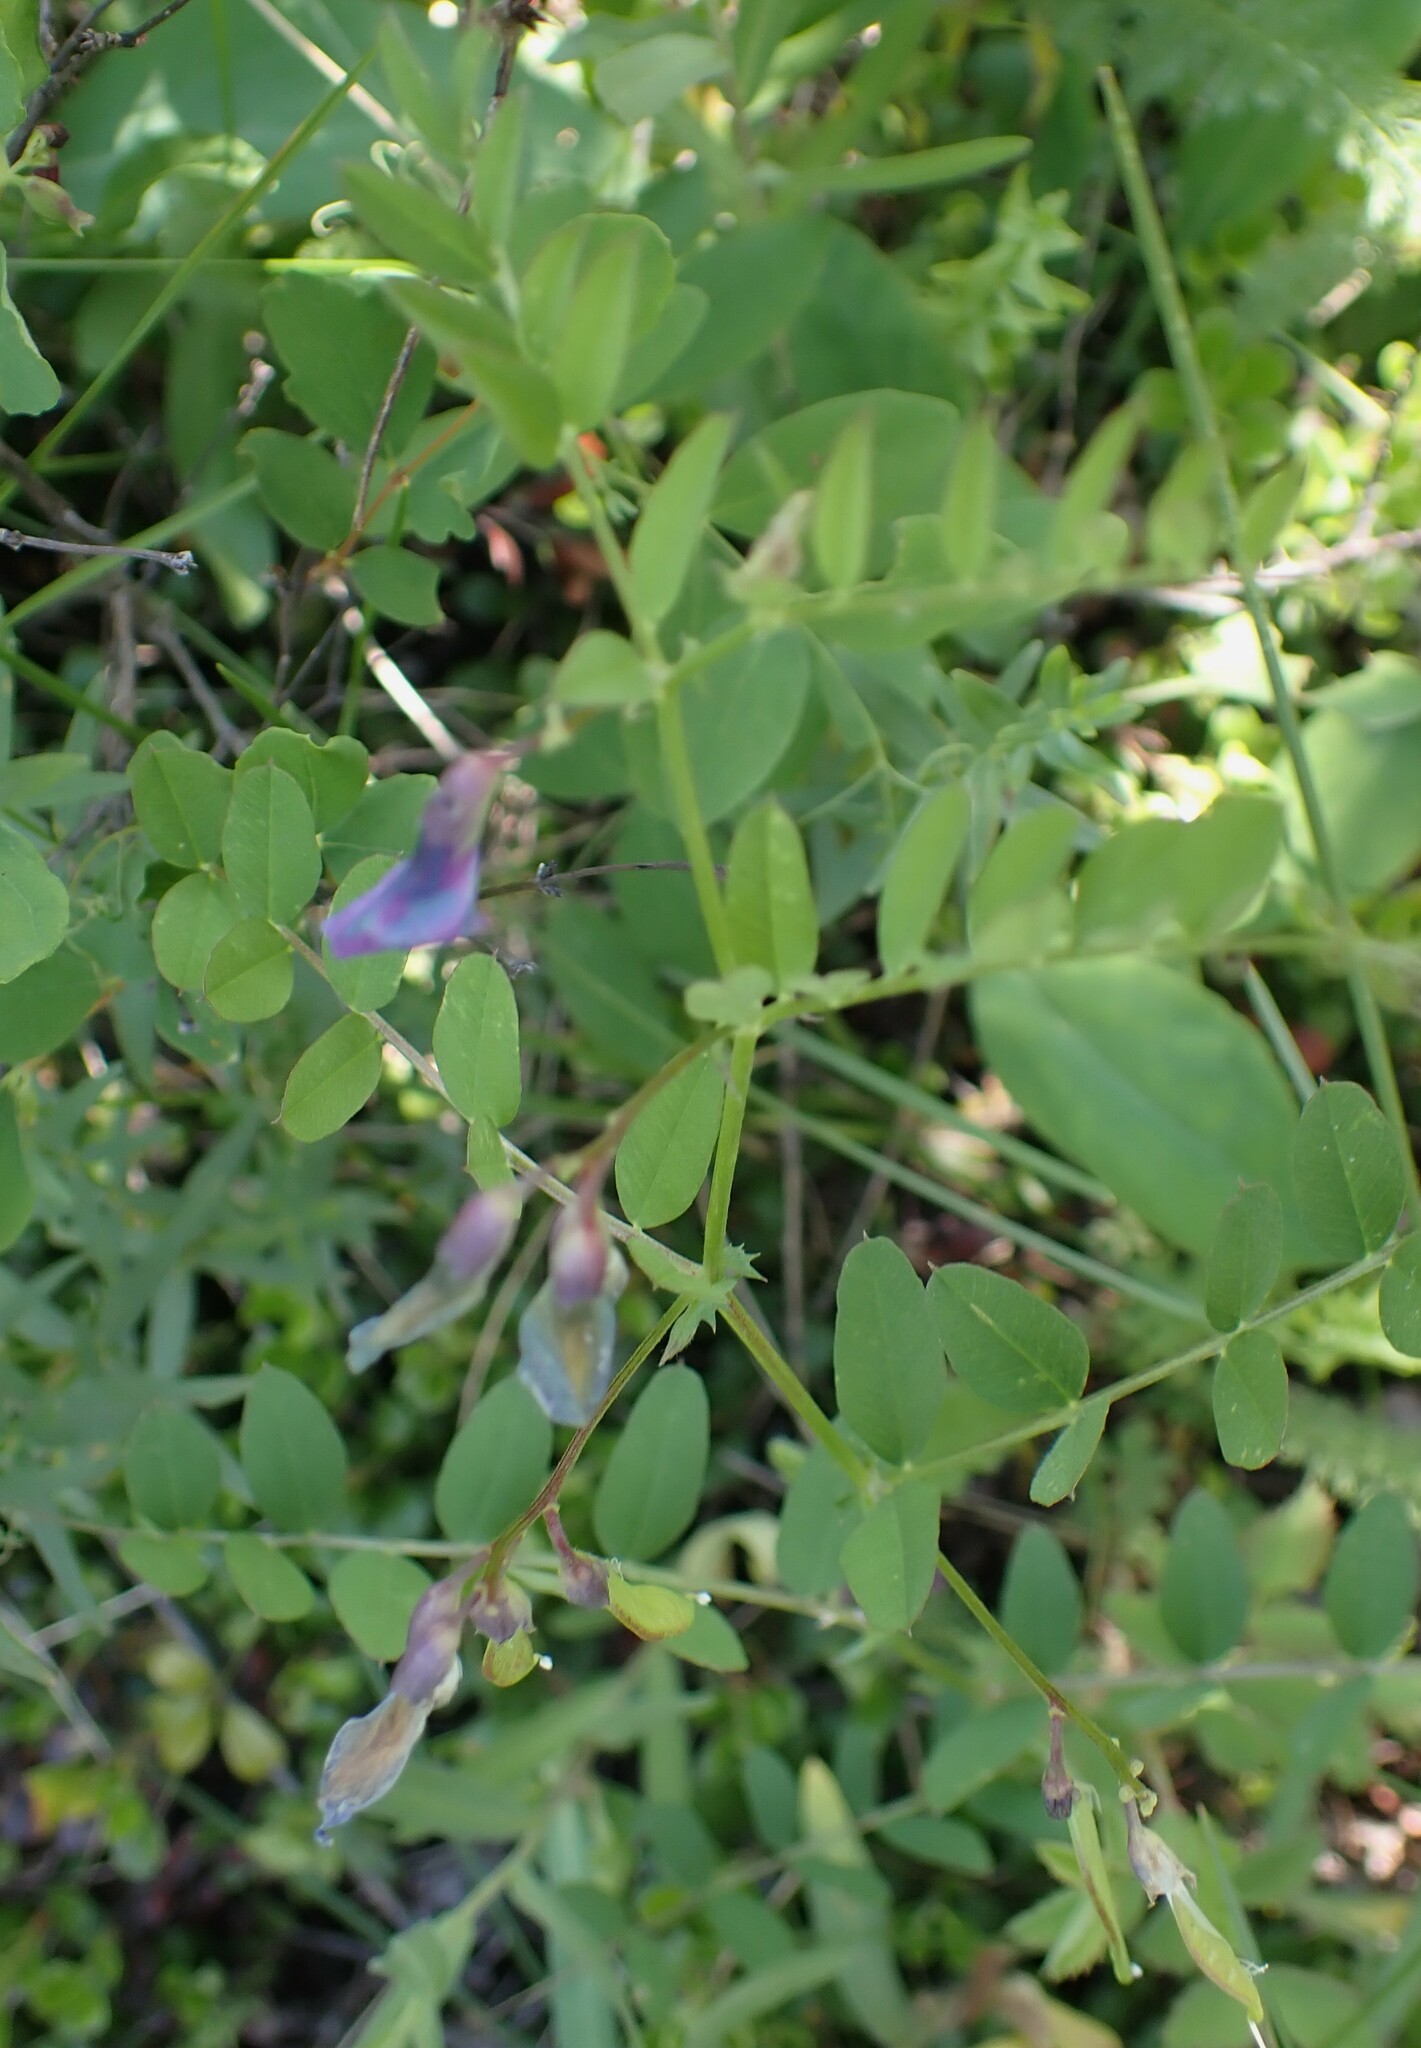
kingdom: Plantae
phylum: Tracheophyta
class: Magnoliopsida
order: Fabales
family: Fabaceae
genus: Vicia
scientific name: Vicia americana
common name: American vetch
